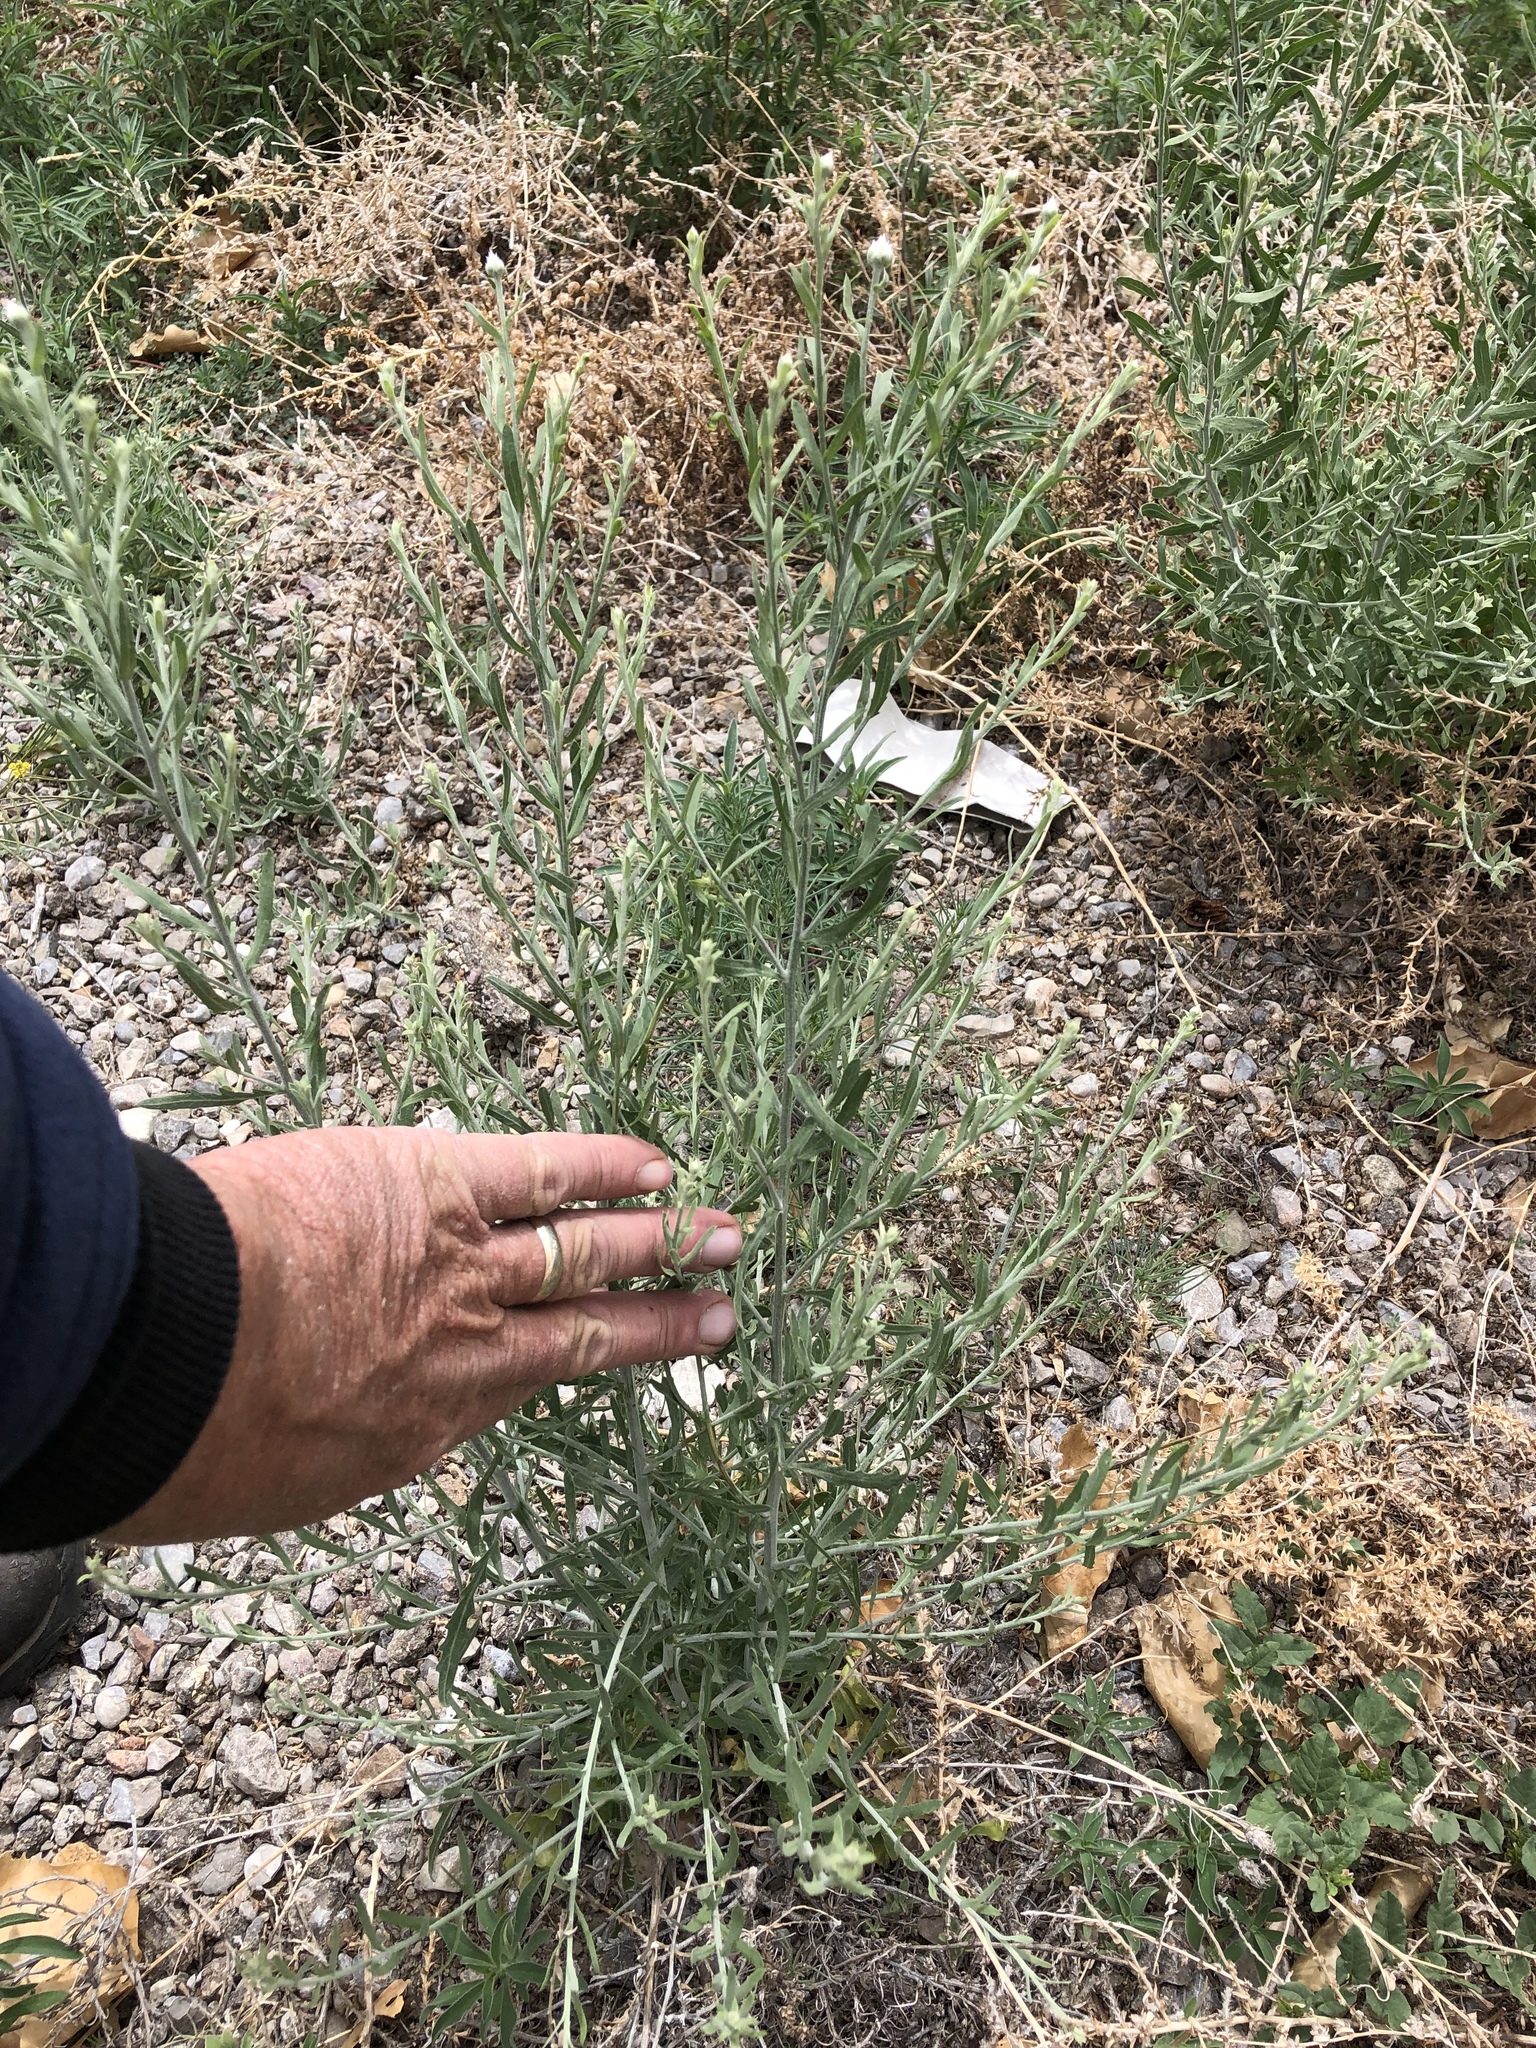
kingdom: Plantae
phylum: Tracheophyta
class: Magnoliopsida
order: Asterales
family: Asteraceae
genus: Leuzea
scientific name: Leuzea repens
